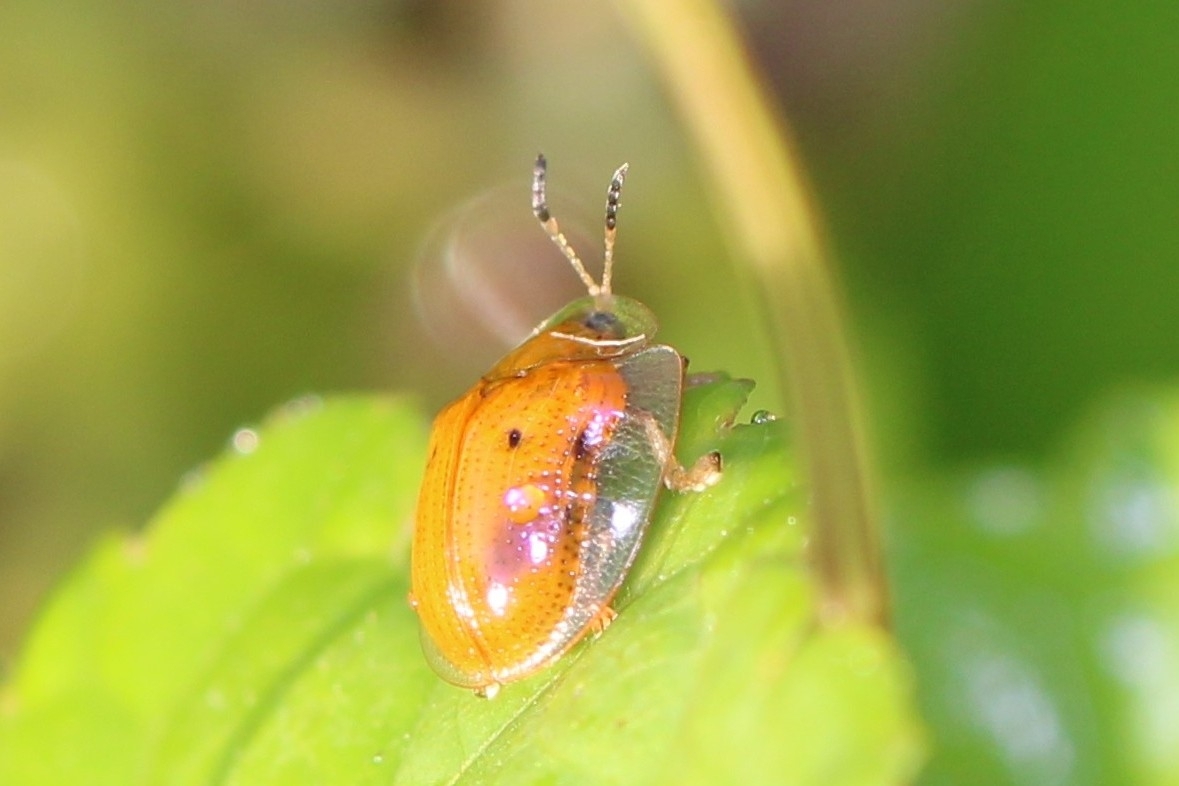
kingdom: Animalia
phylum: Arthropoda
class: Insecta
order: Coleoptera
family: Chrysomelidae
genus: Charidotella
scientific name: Charidotella sexpunctata
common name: Golden tortoise beetle
